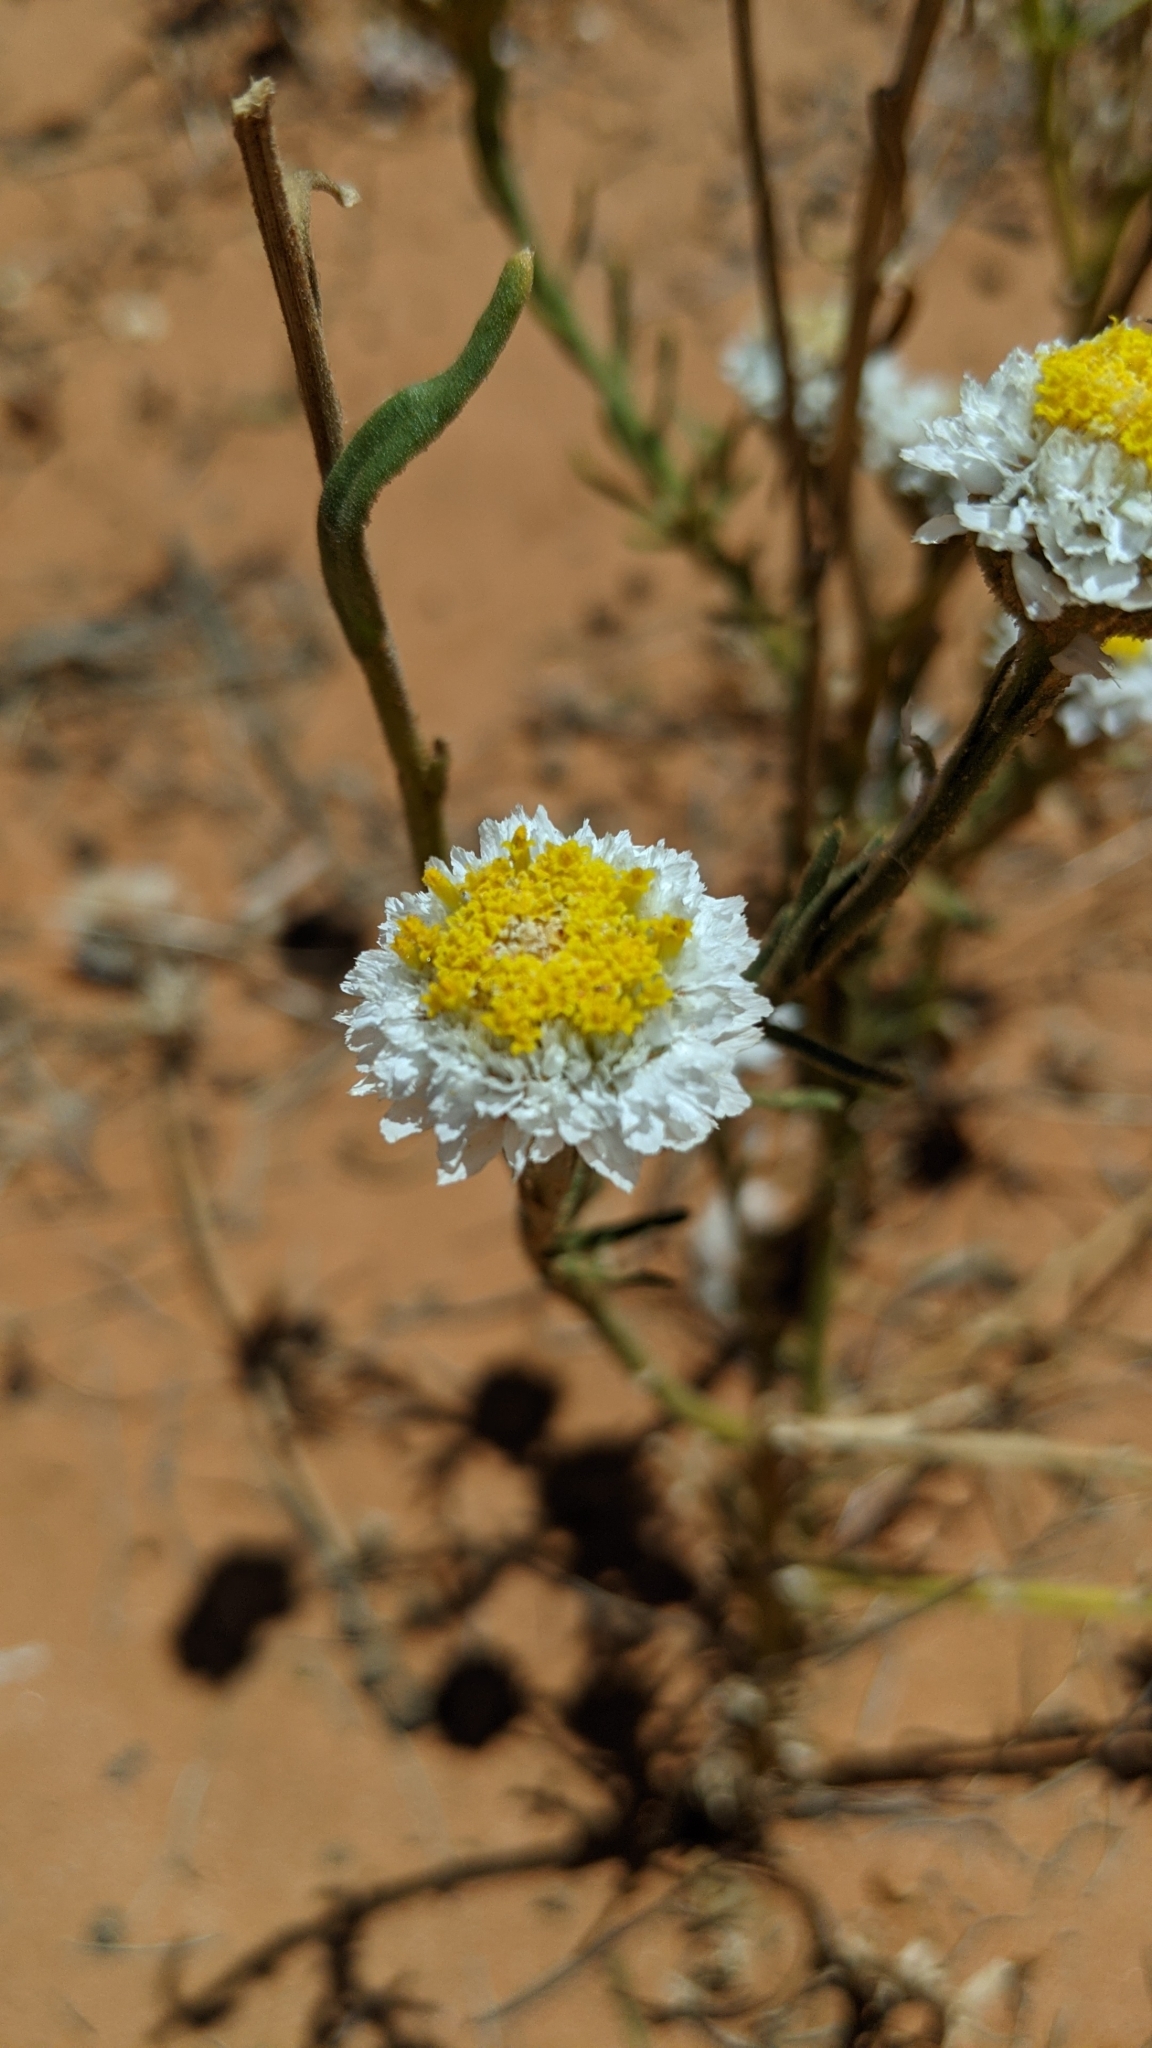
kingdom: Plantae
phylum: Tracheophyta
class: Magnoliopsida
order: Asterales
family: Asteraceae
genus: Polycalymma
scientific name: Polycalymma stuartii
